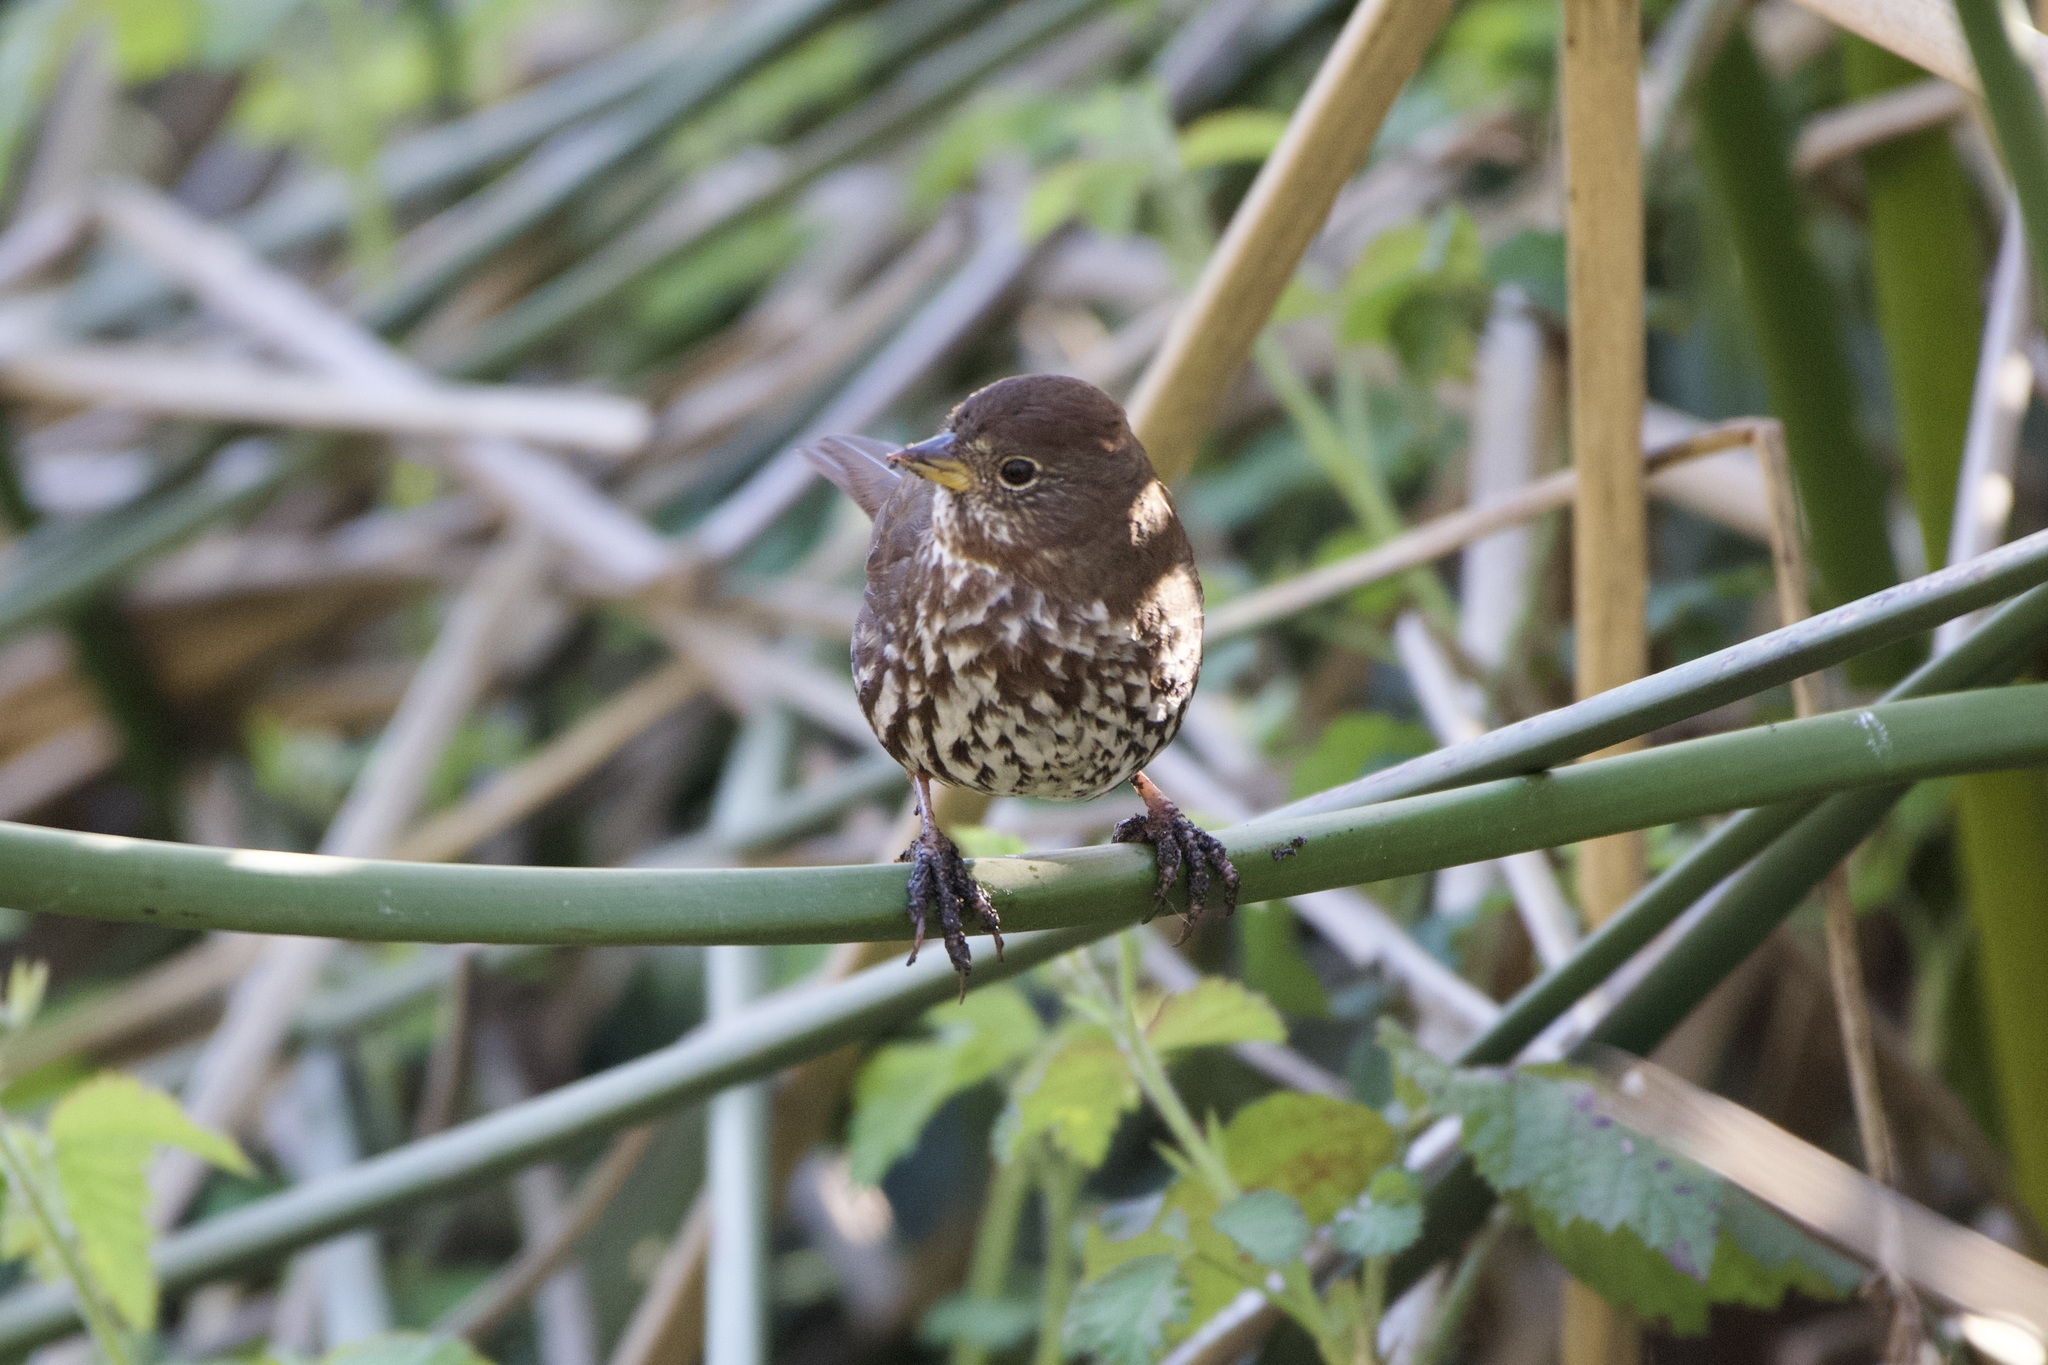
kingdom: Animalia
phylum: Chordata
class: Aves
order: Passeriformes
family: Passerellidae
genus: Passerella
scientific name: Passerella iliaca
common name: Fox sparrow
